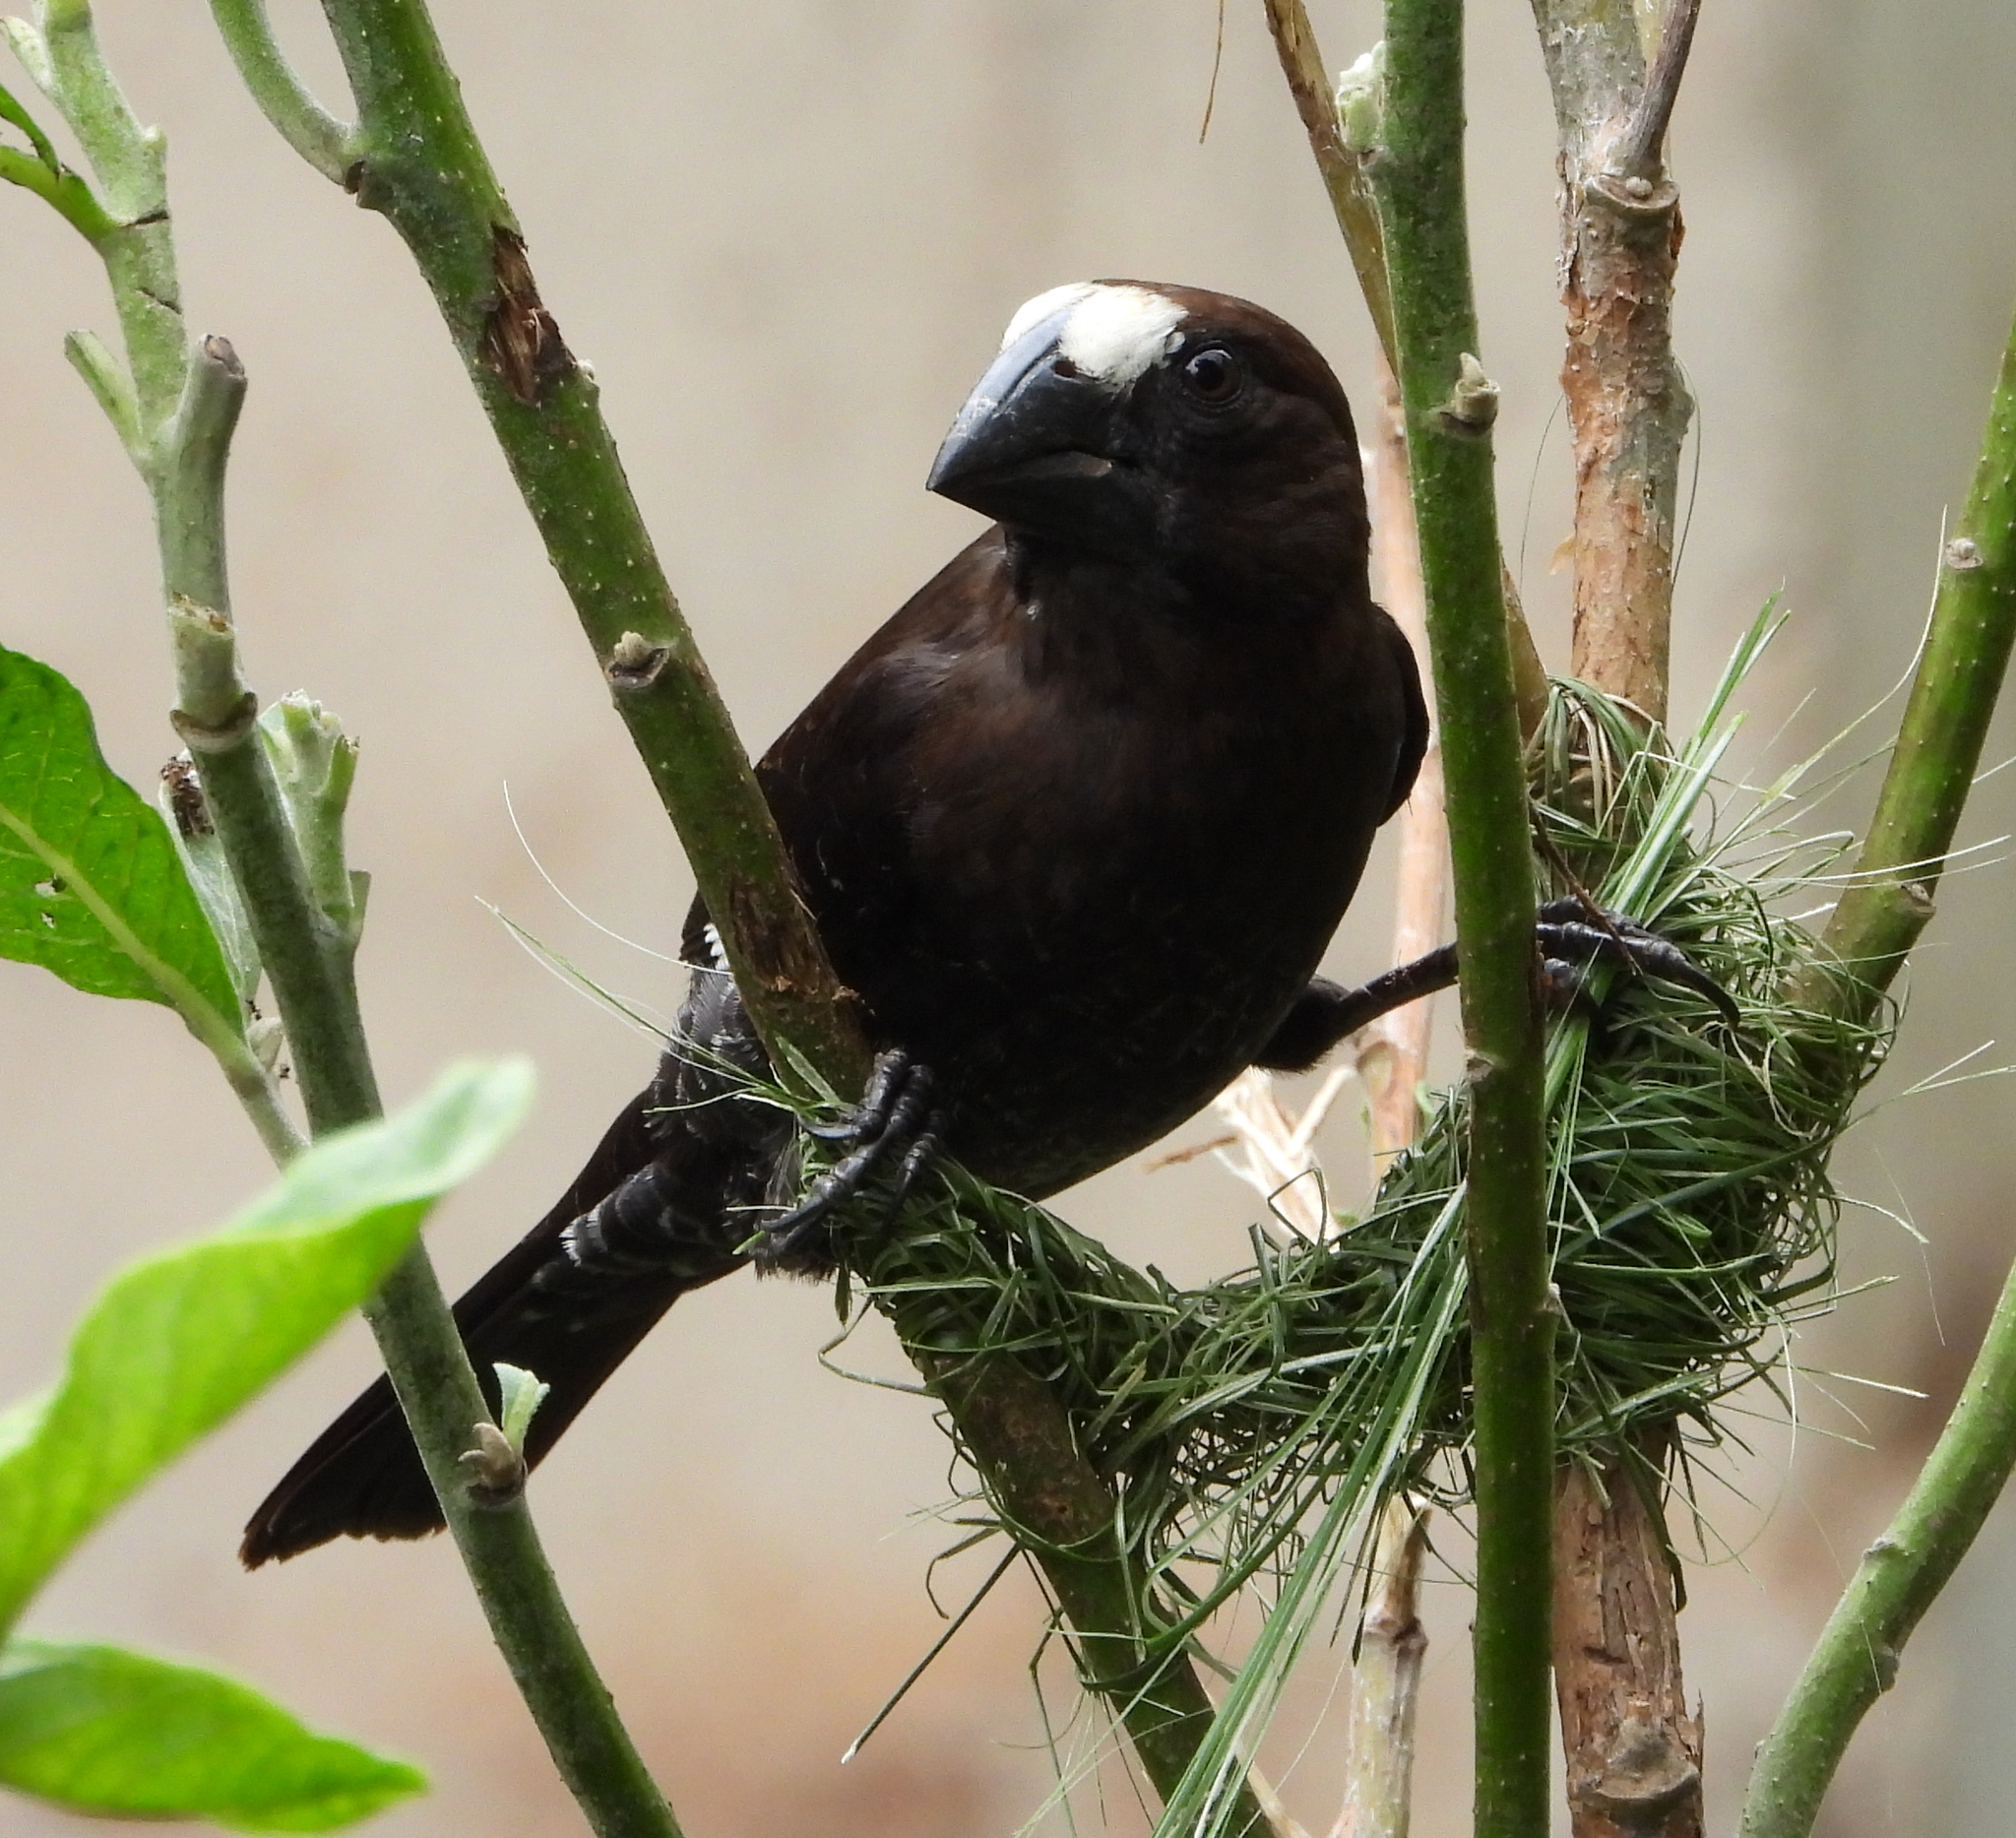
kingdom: Animalia
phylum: Chordata
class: Aves
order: Passeriformes
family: Ploceidae
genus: Amblyospiza
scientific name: Amblyospiza albifrons
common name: Thick-billed weaver
